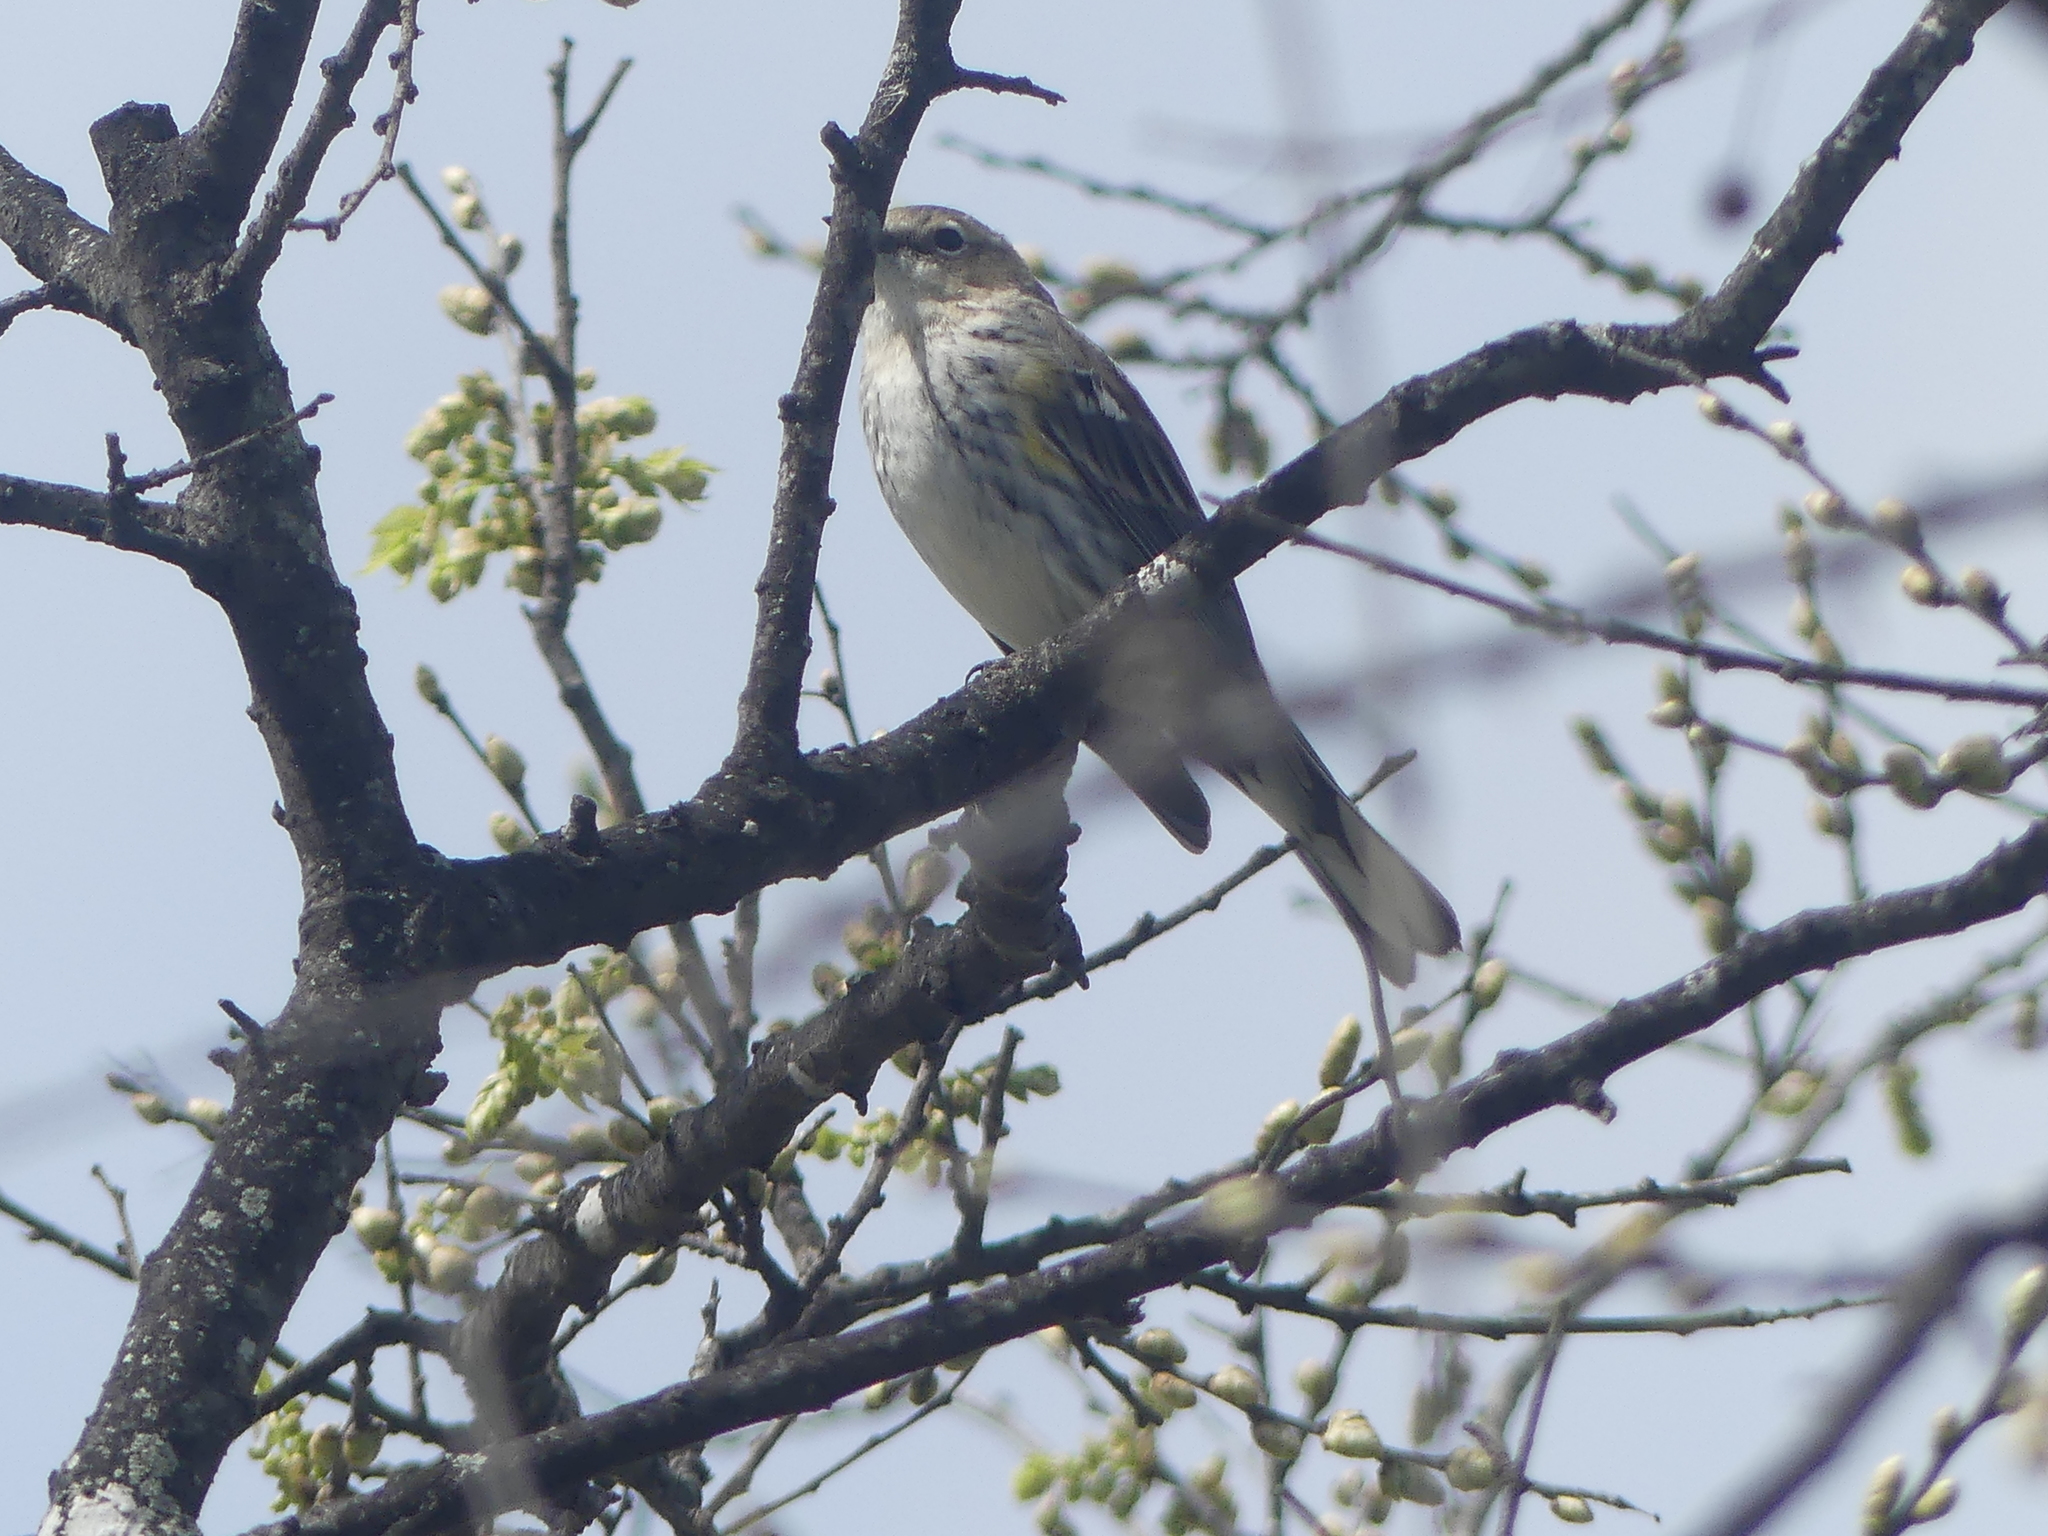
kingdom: Animalia
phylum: Chordata
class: Aves
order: Passeriformes
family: Parulidae
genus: Setophaga
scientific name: Setophaga coronata
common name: Myrtle warbler
